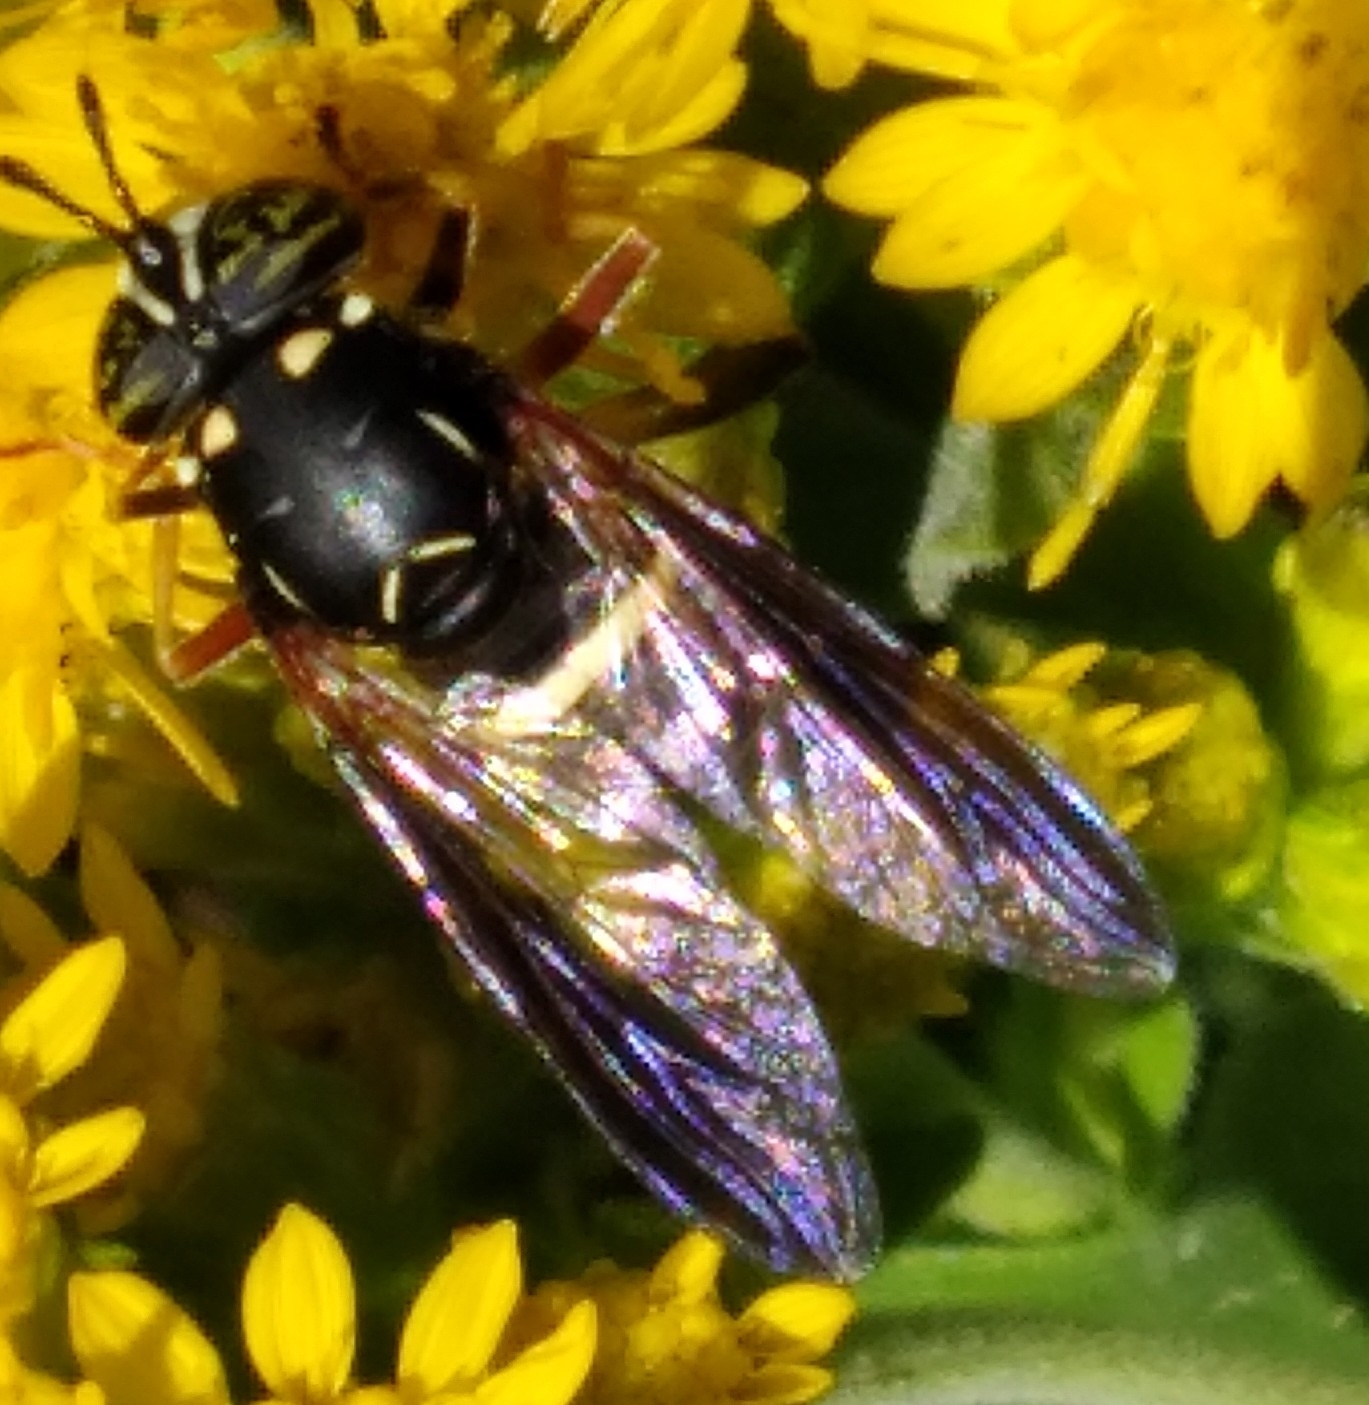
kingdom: Animalia
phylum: Arthropoda
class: Insecta
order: Diptera
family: Syrphidae
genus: Spilomyia
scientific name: Spilomyia sayi
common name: Four-lined hornet fly
